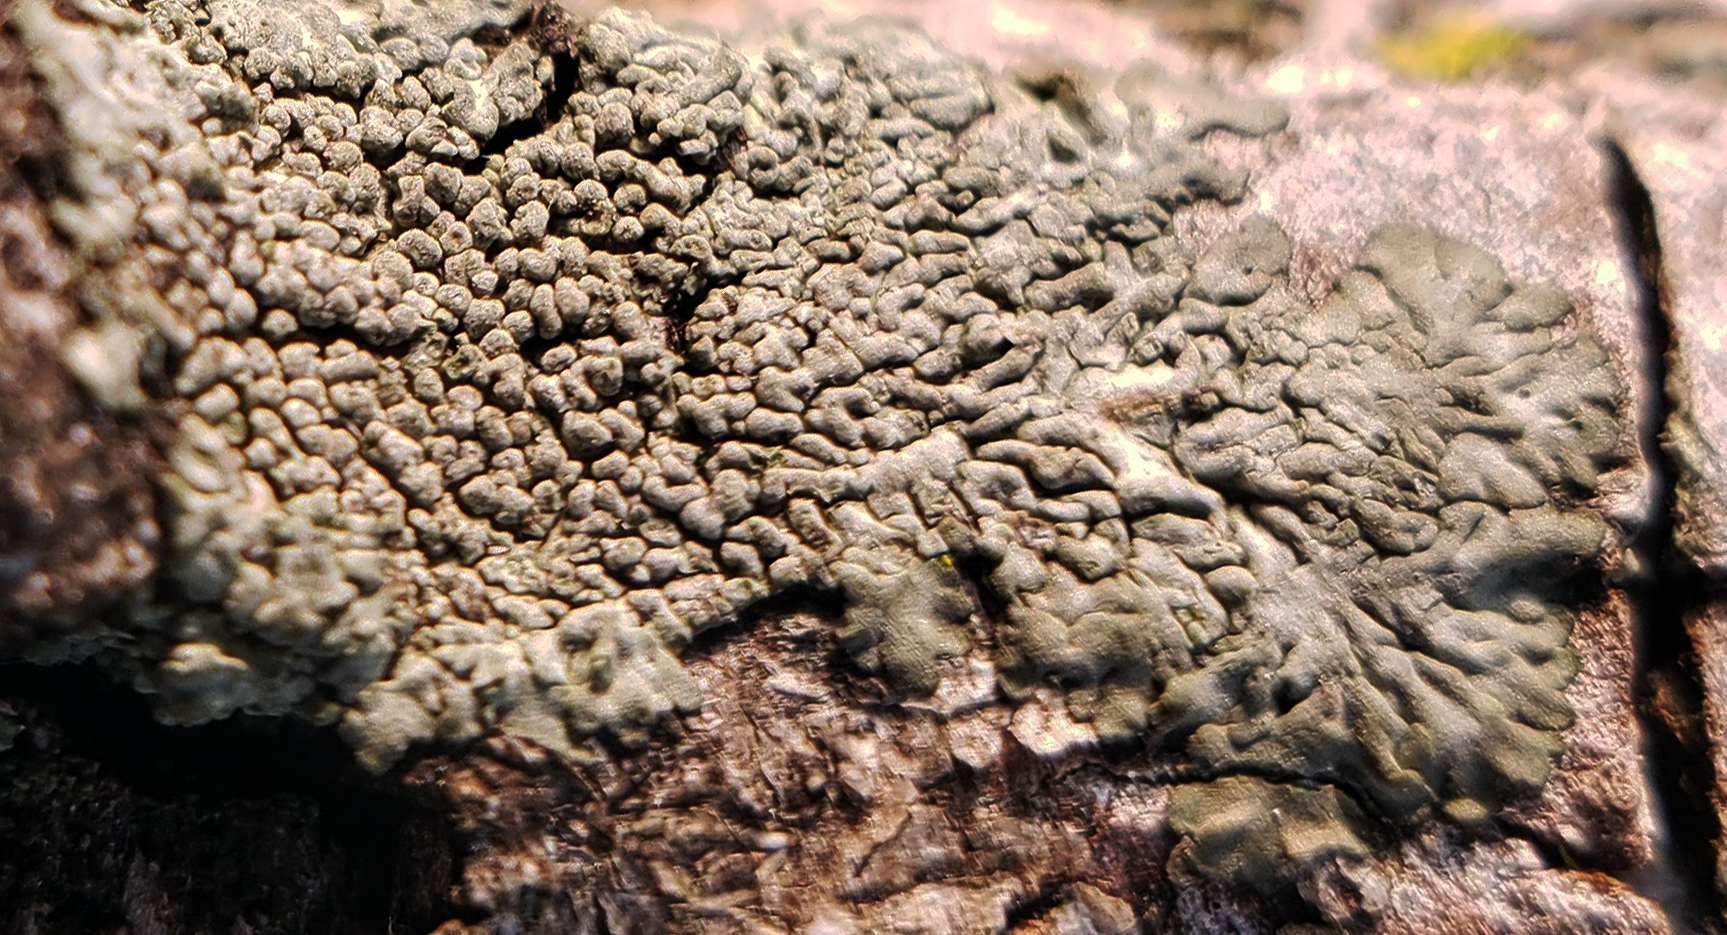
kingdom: Fungi
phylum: Ascomycota
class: Lecanoromycetes
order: Caliciales
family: Physciaceae
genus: Hyperphyscia
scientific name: Hyperphyscia syncolla
